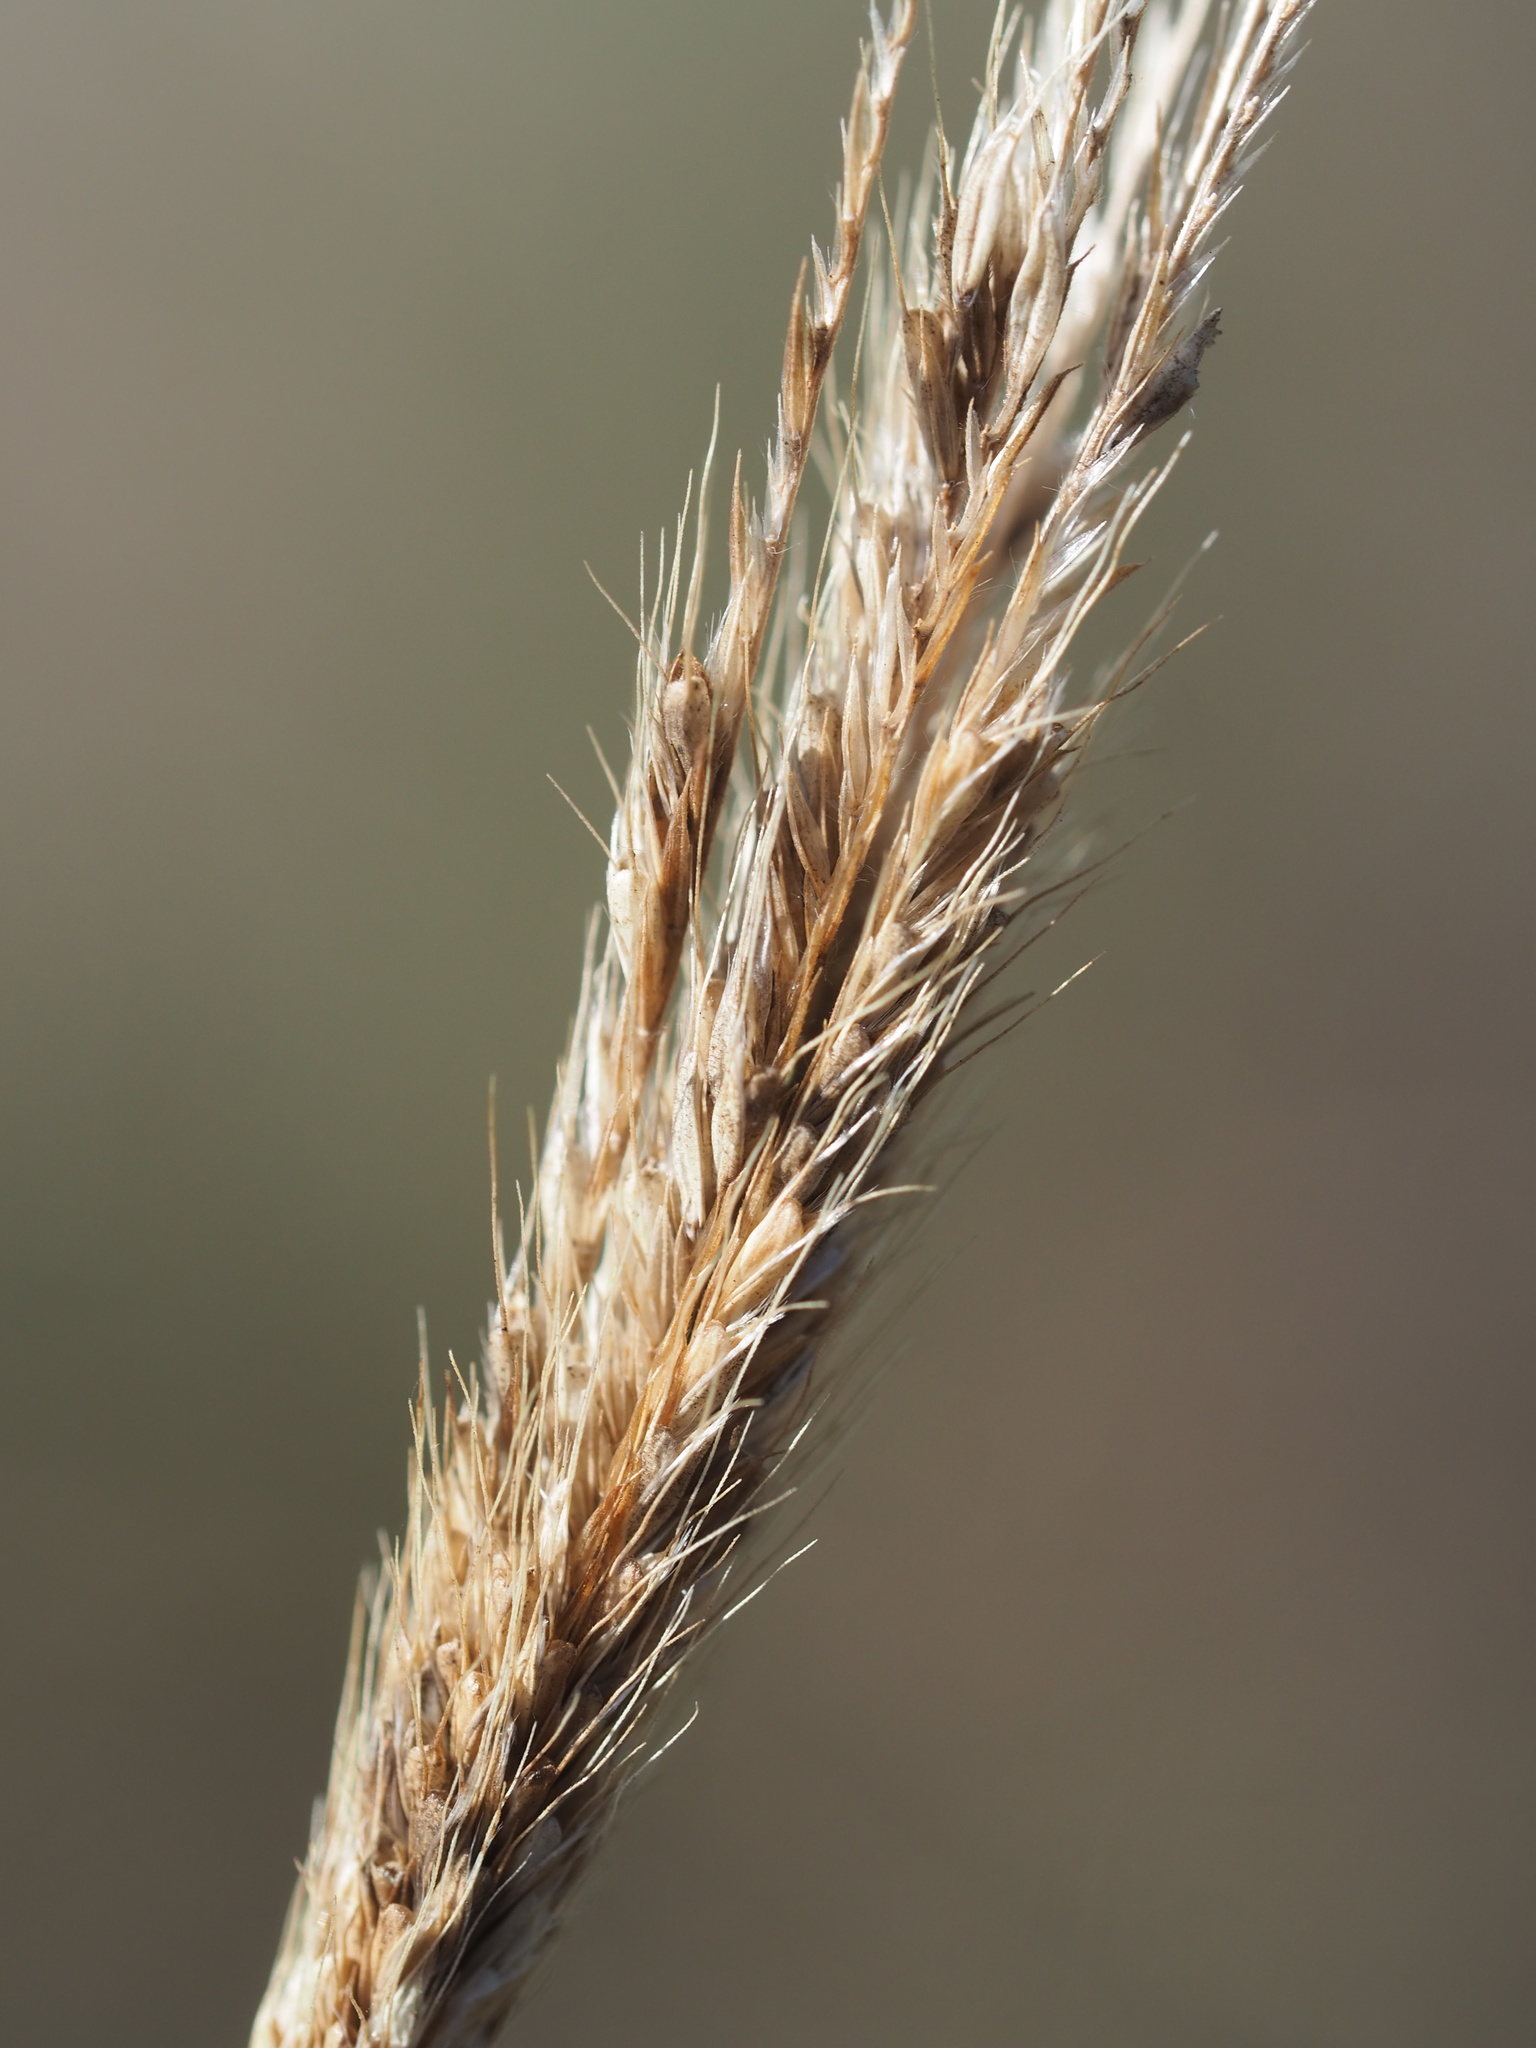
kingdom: Plantae
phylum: Tracheophyta
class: Liliopsida
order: Poales
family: Poaceae
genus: Chloris
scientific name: Chloris formosana
